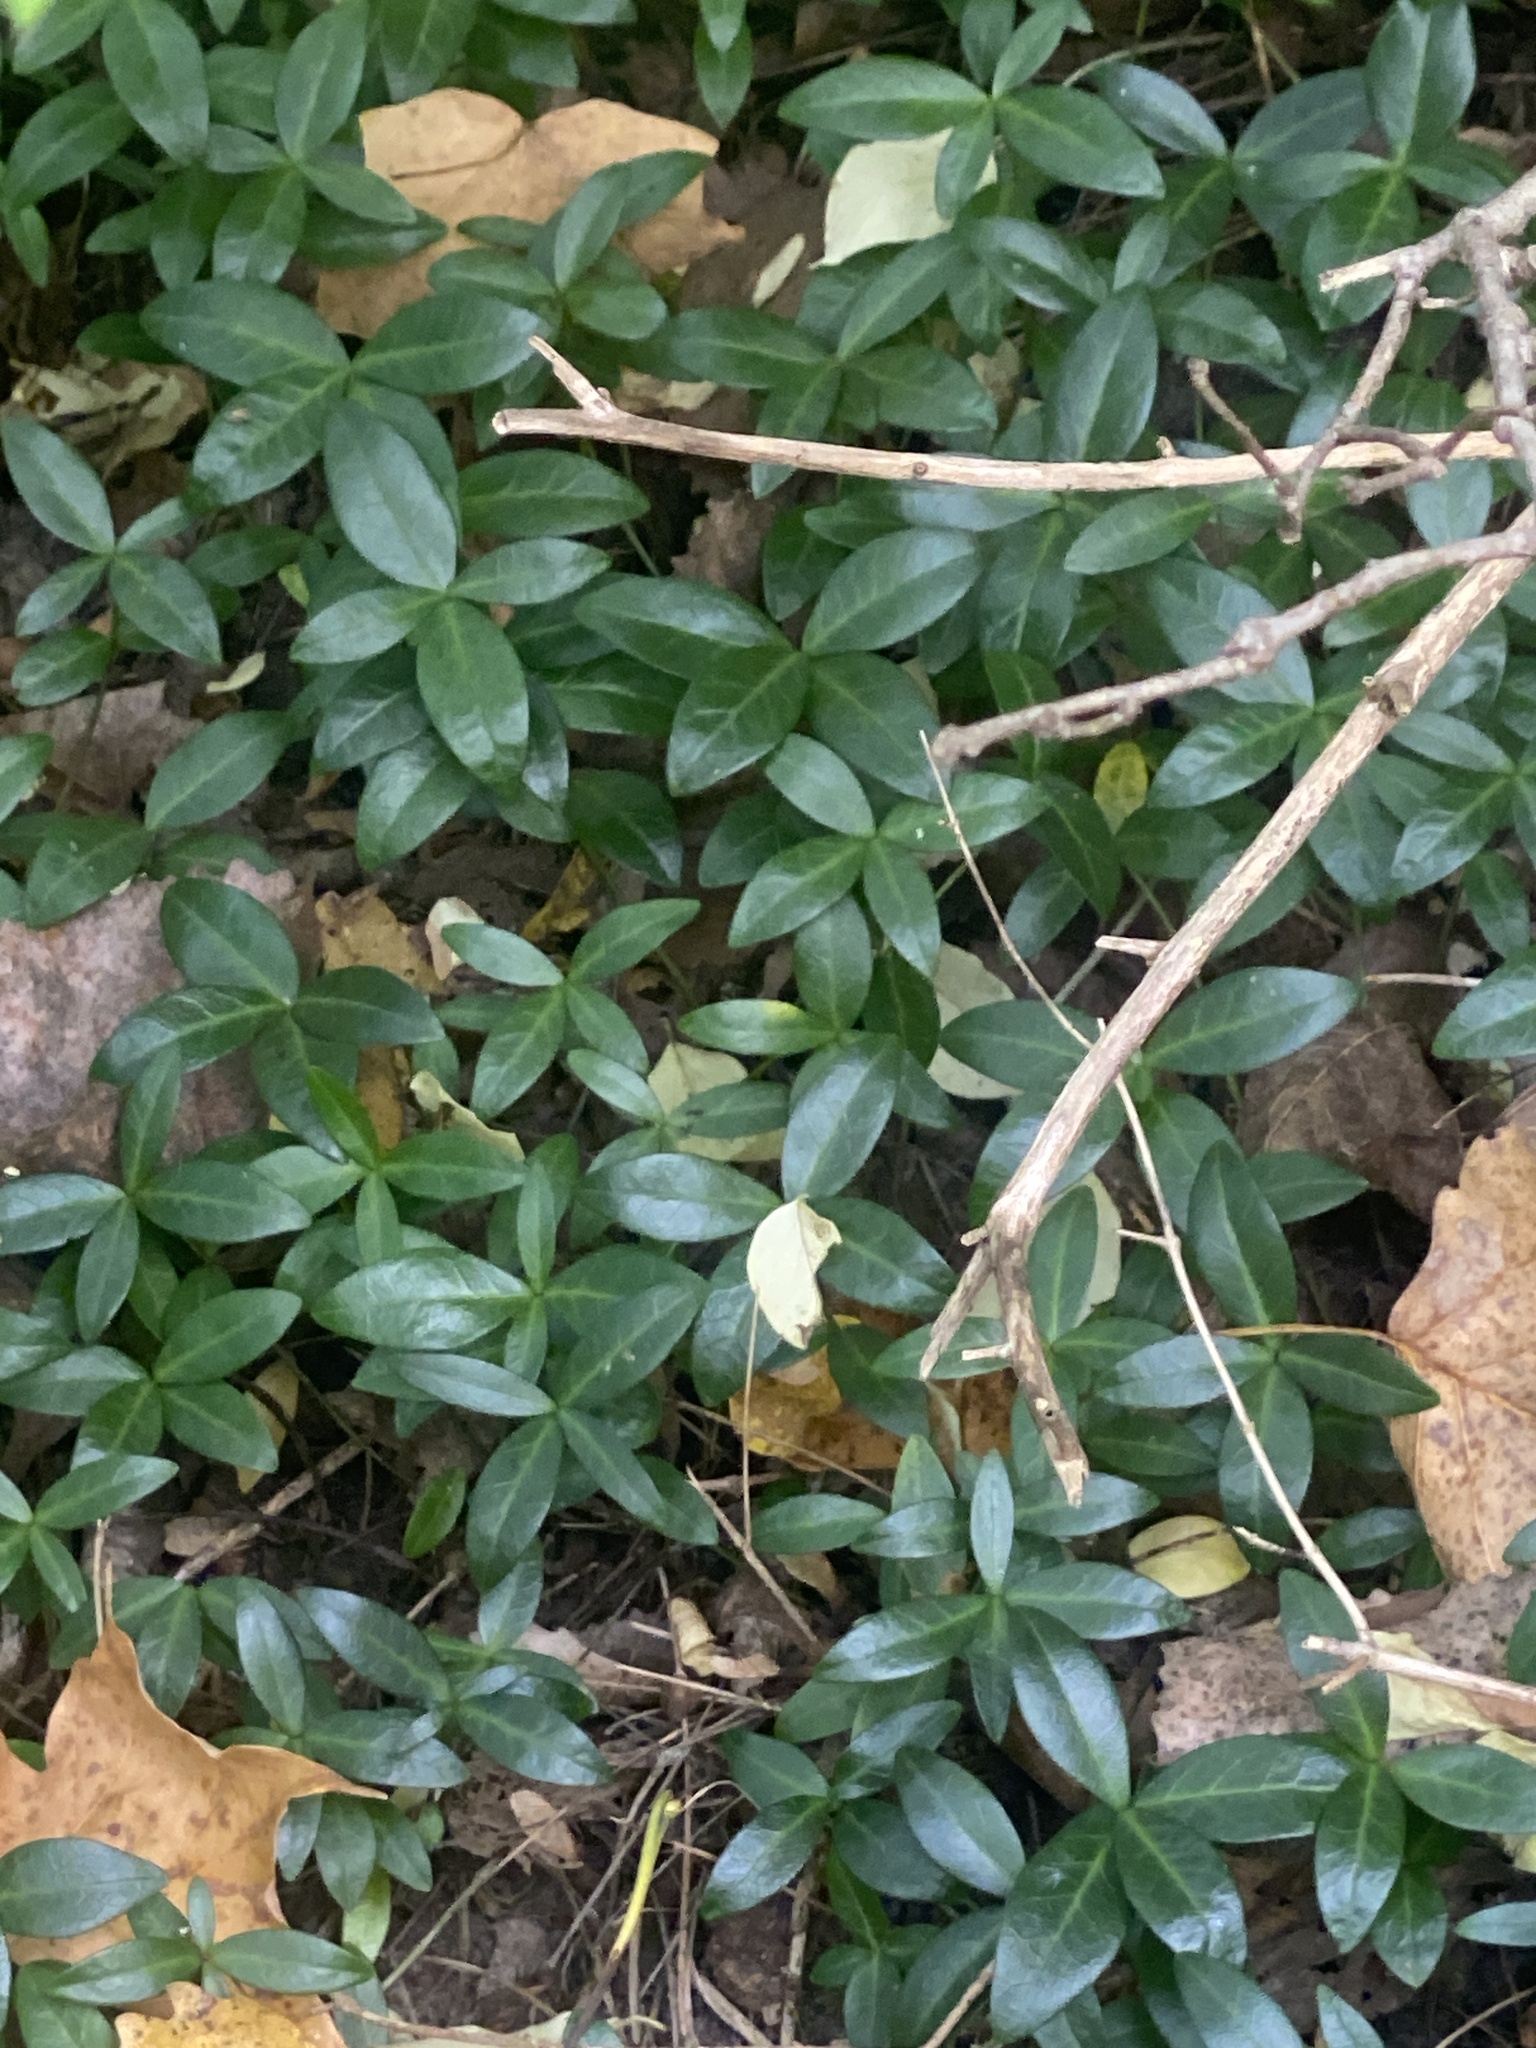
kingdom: Plantae
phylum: Tracheophyta
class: Magnoliopsida
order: Gentianales
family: Apocynaceae
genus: Vinca
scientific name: Vinca minor
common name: Lesser periwinkle
